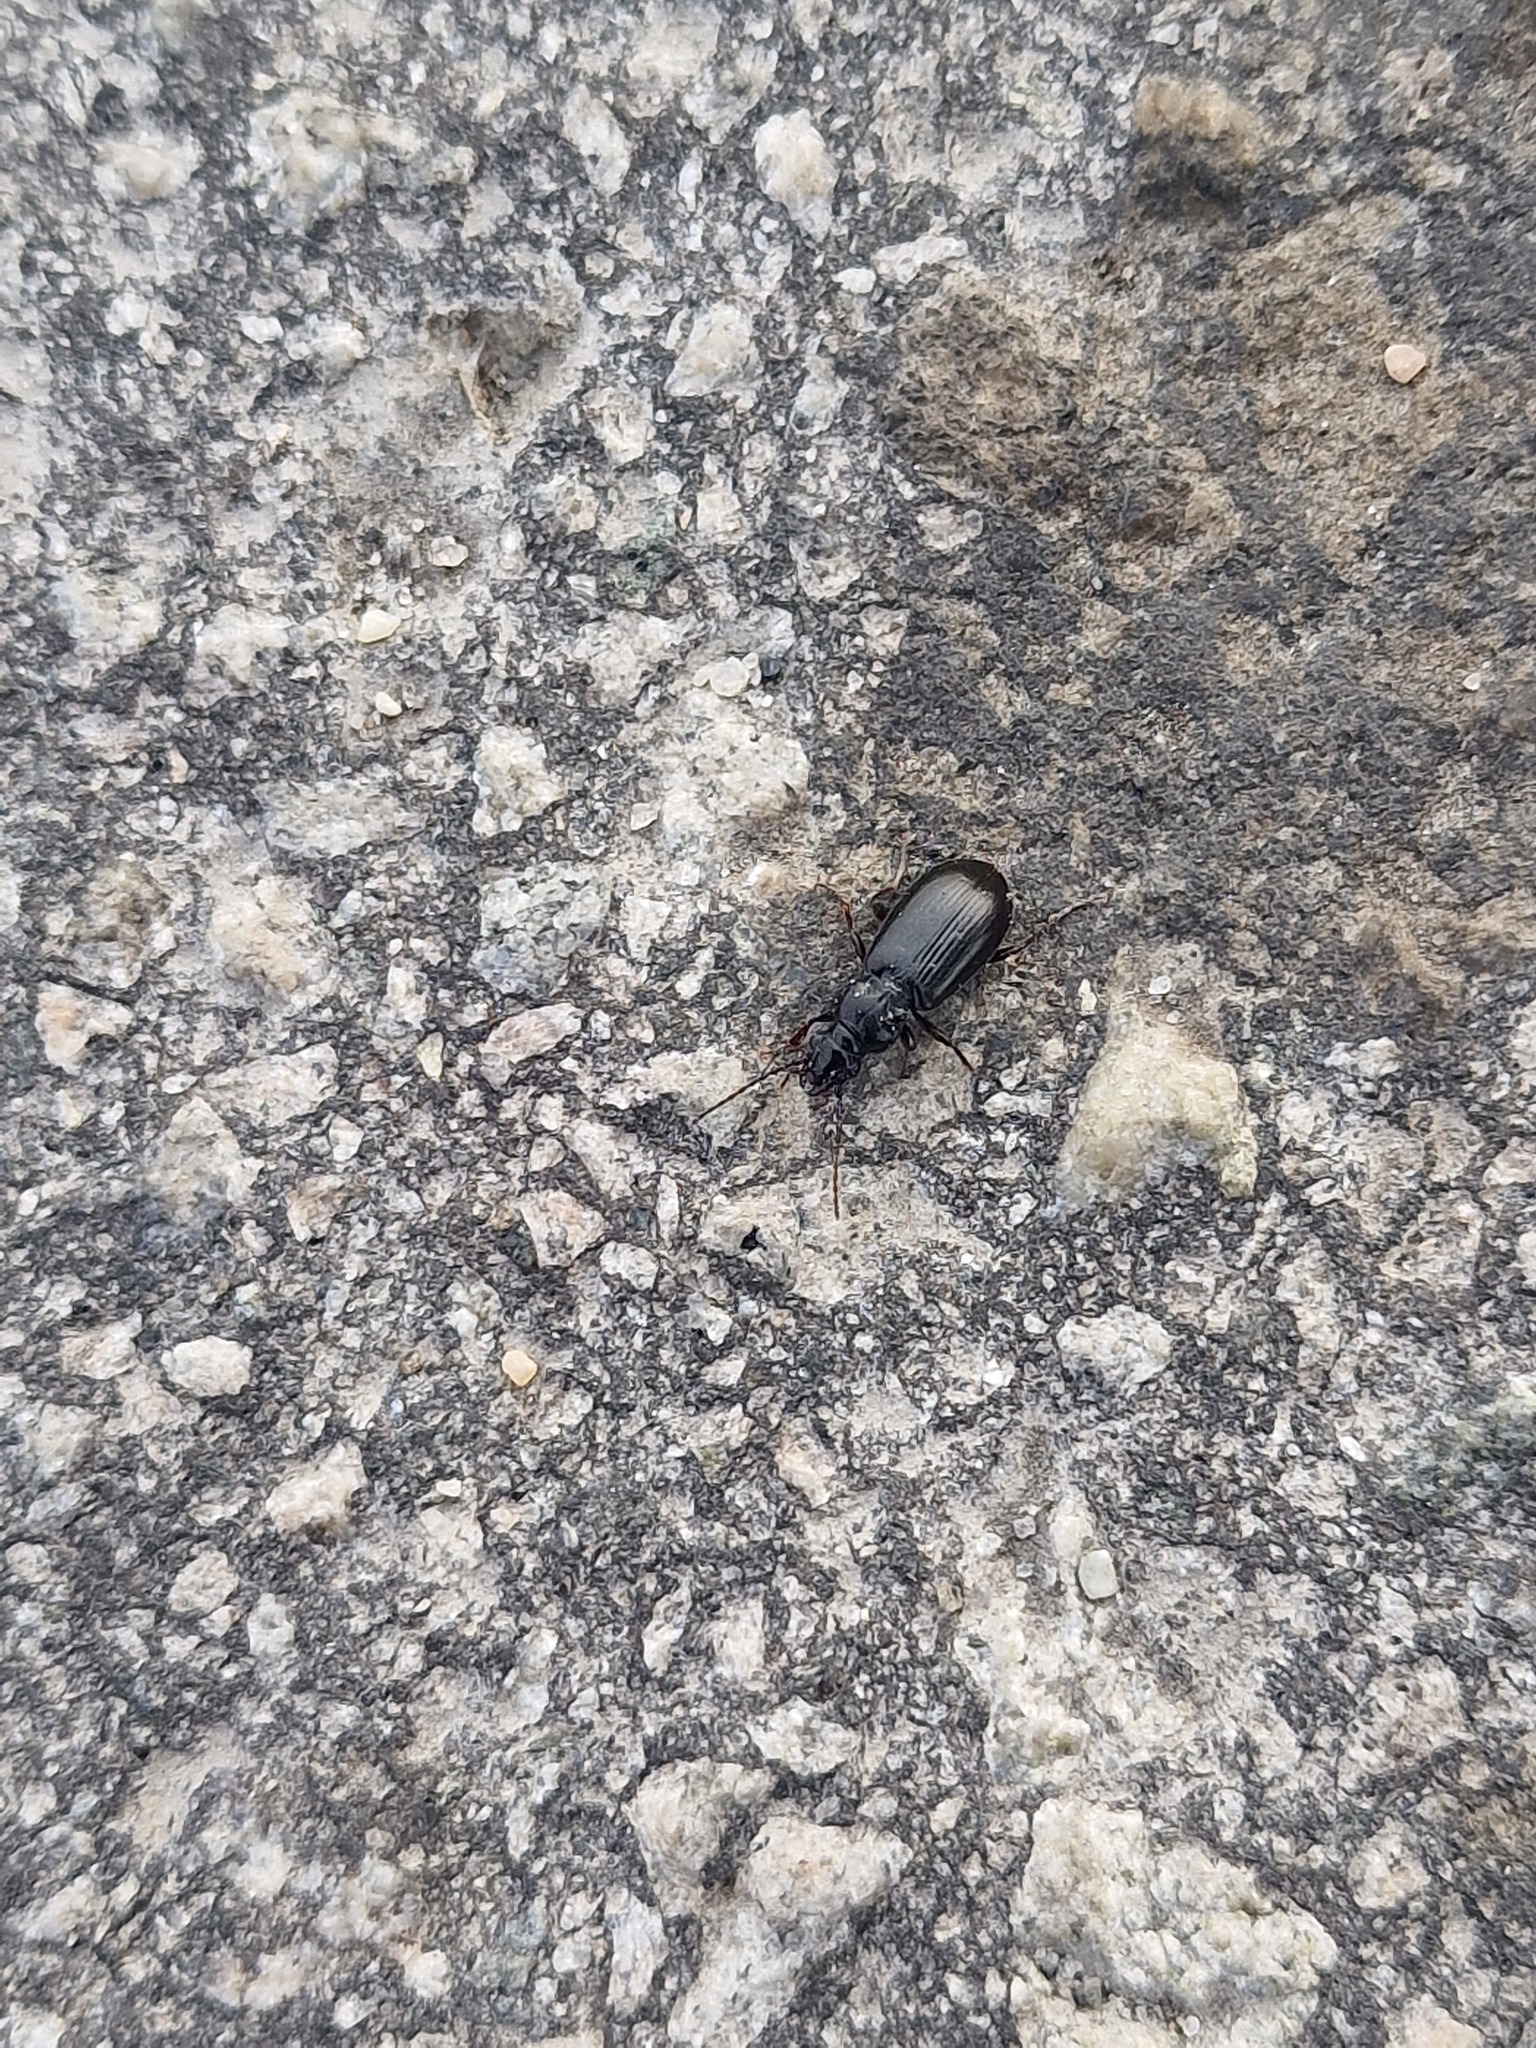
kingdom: Animalia
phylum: Arthropoda
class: Insecta
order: Coleoptera
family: Carabidae
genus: Patrobus
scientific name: Patrobus septentrionis
